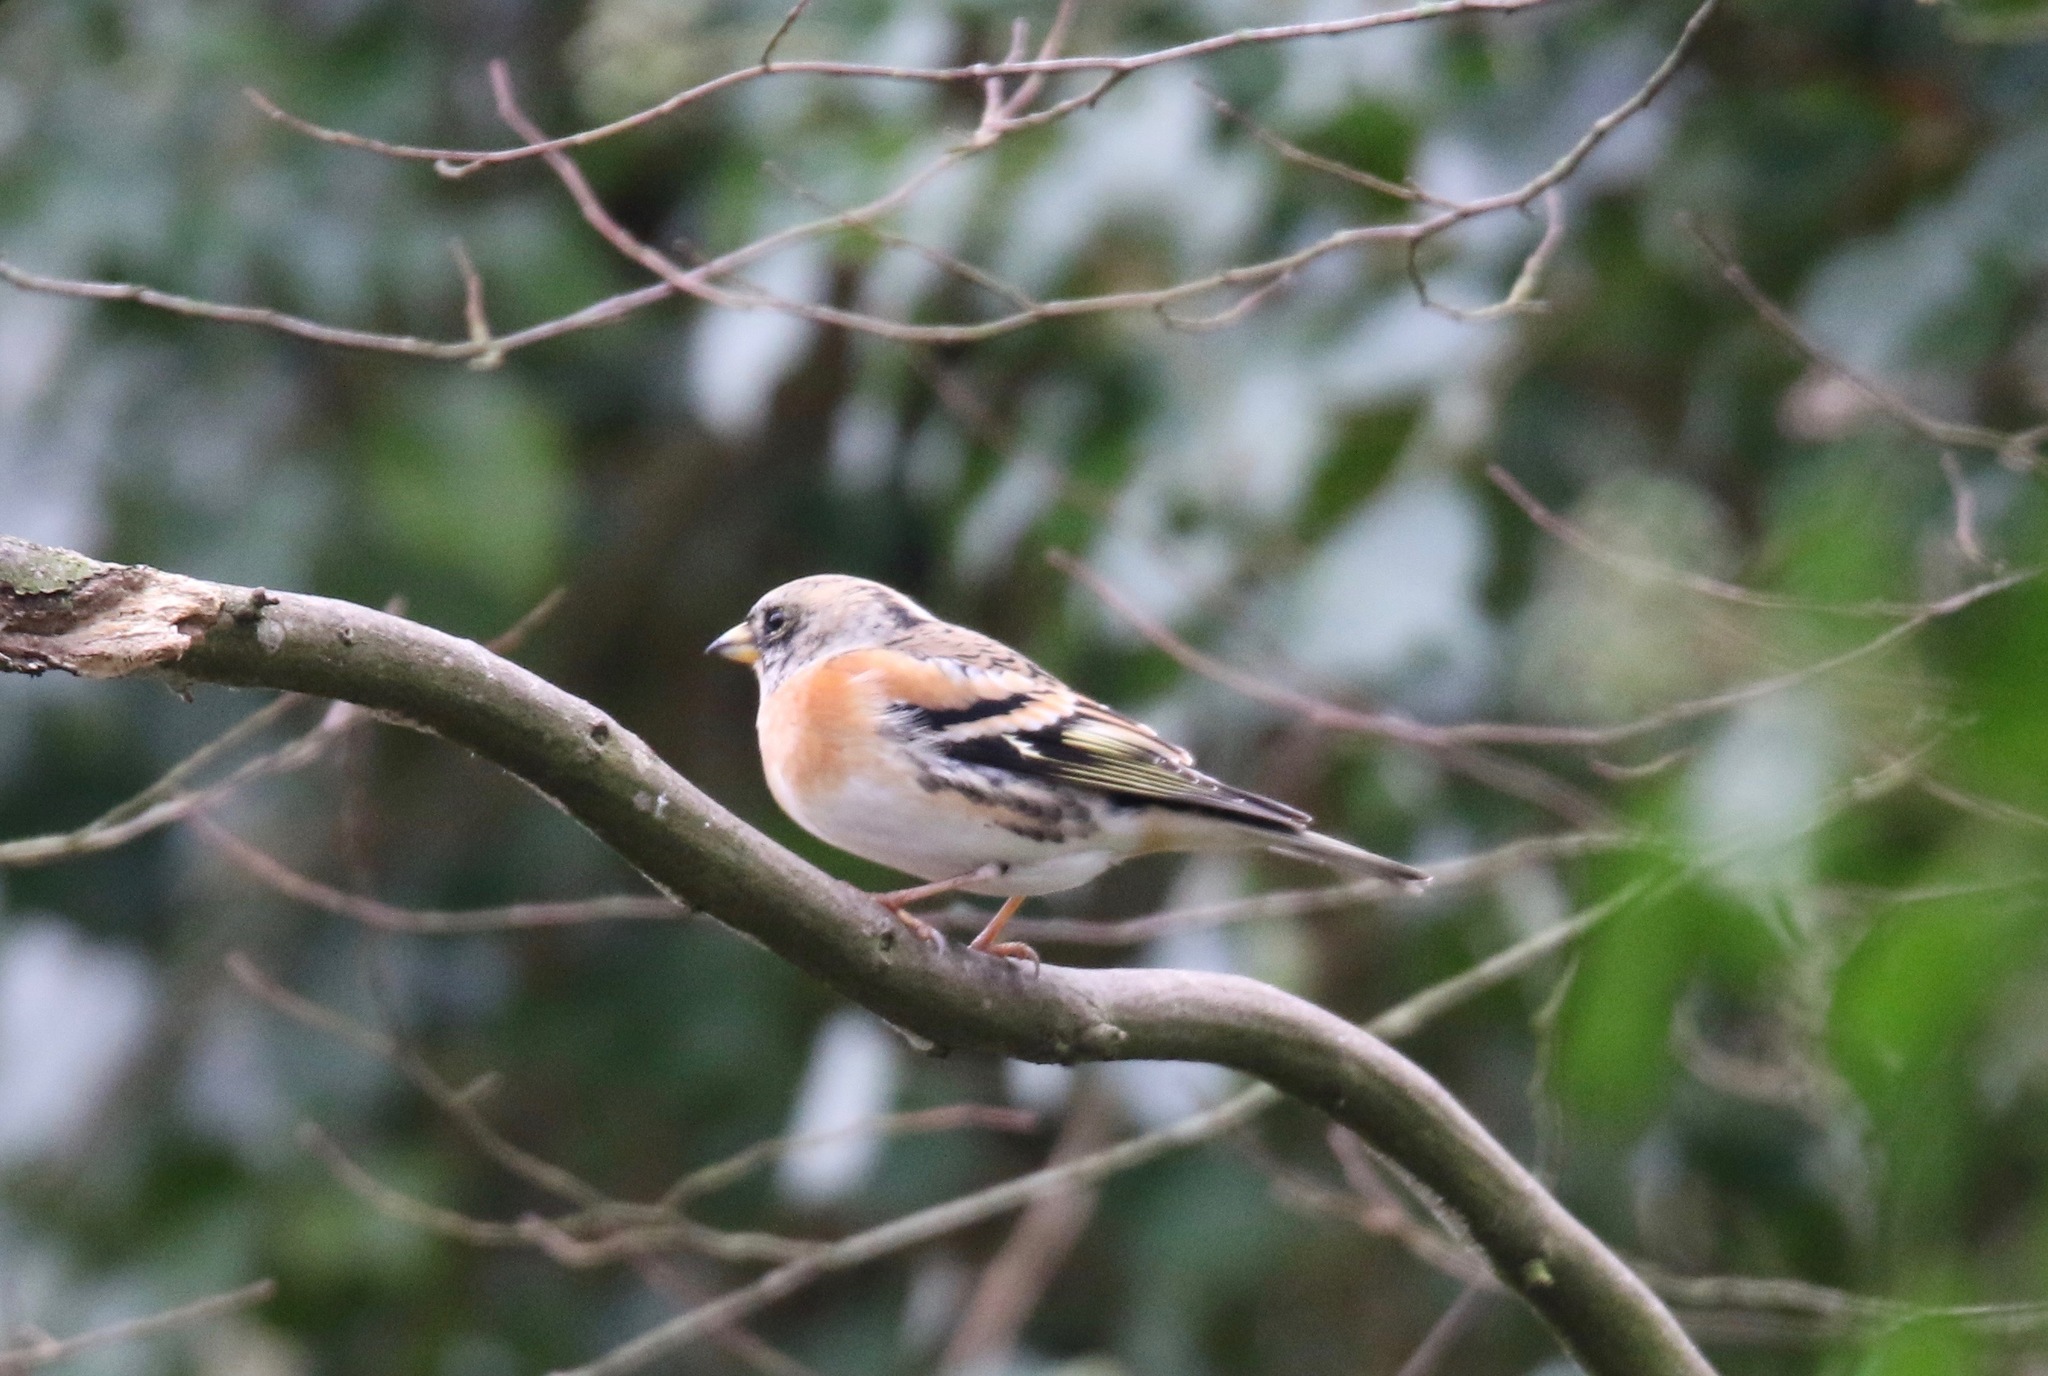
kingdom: Animalia
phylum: Chordata
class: Aves
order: Passeriformes
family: Fringillidae
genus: Fringilla
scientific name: Fringilla montifringilla
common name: Brambling
